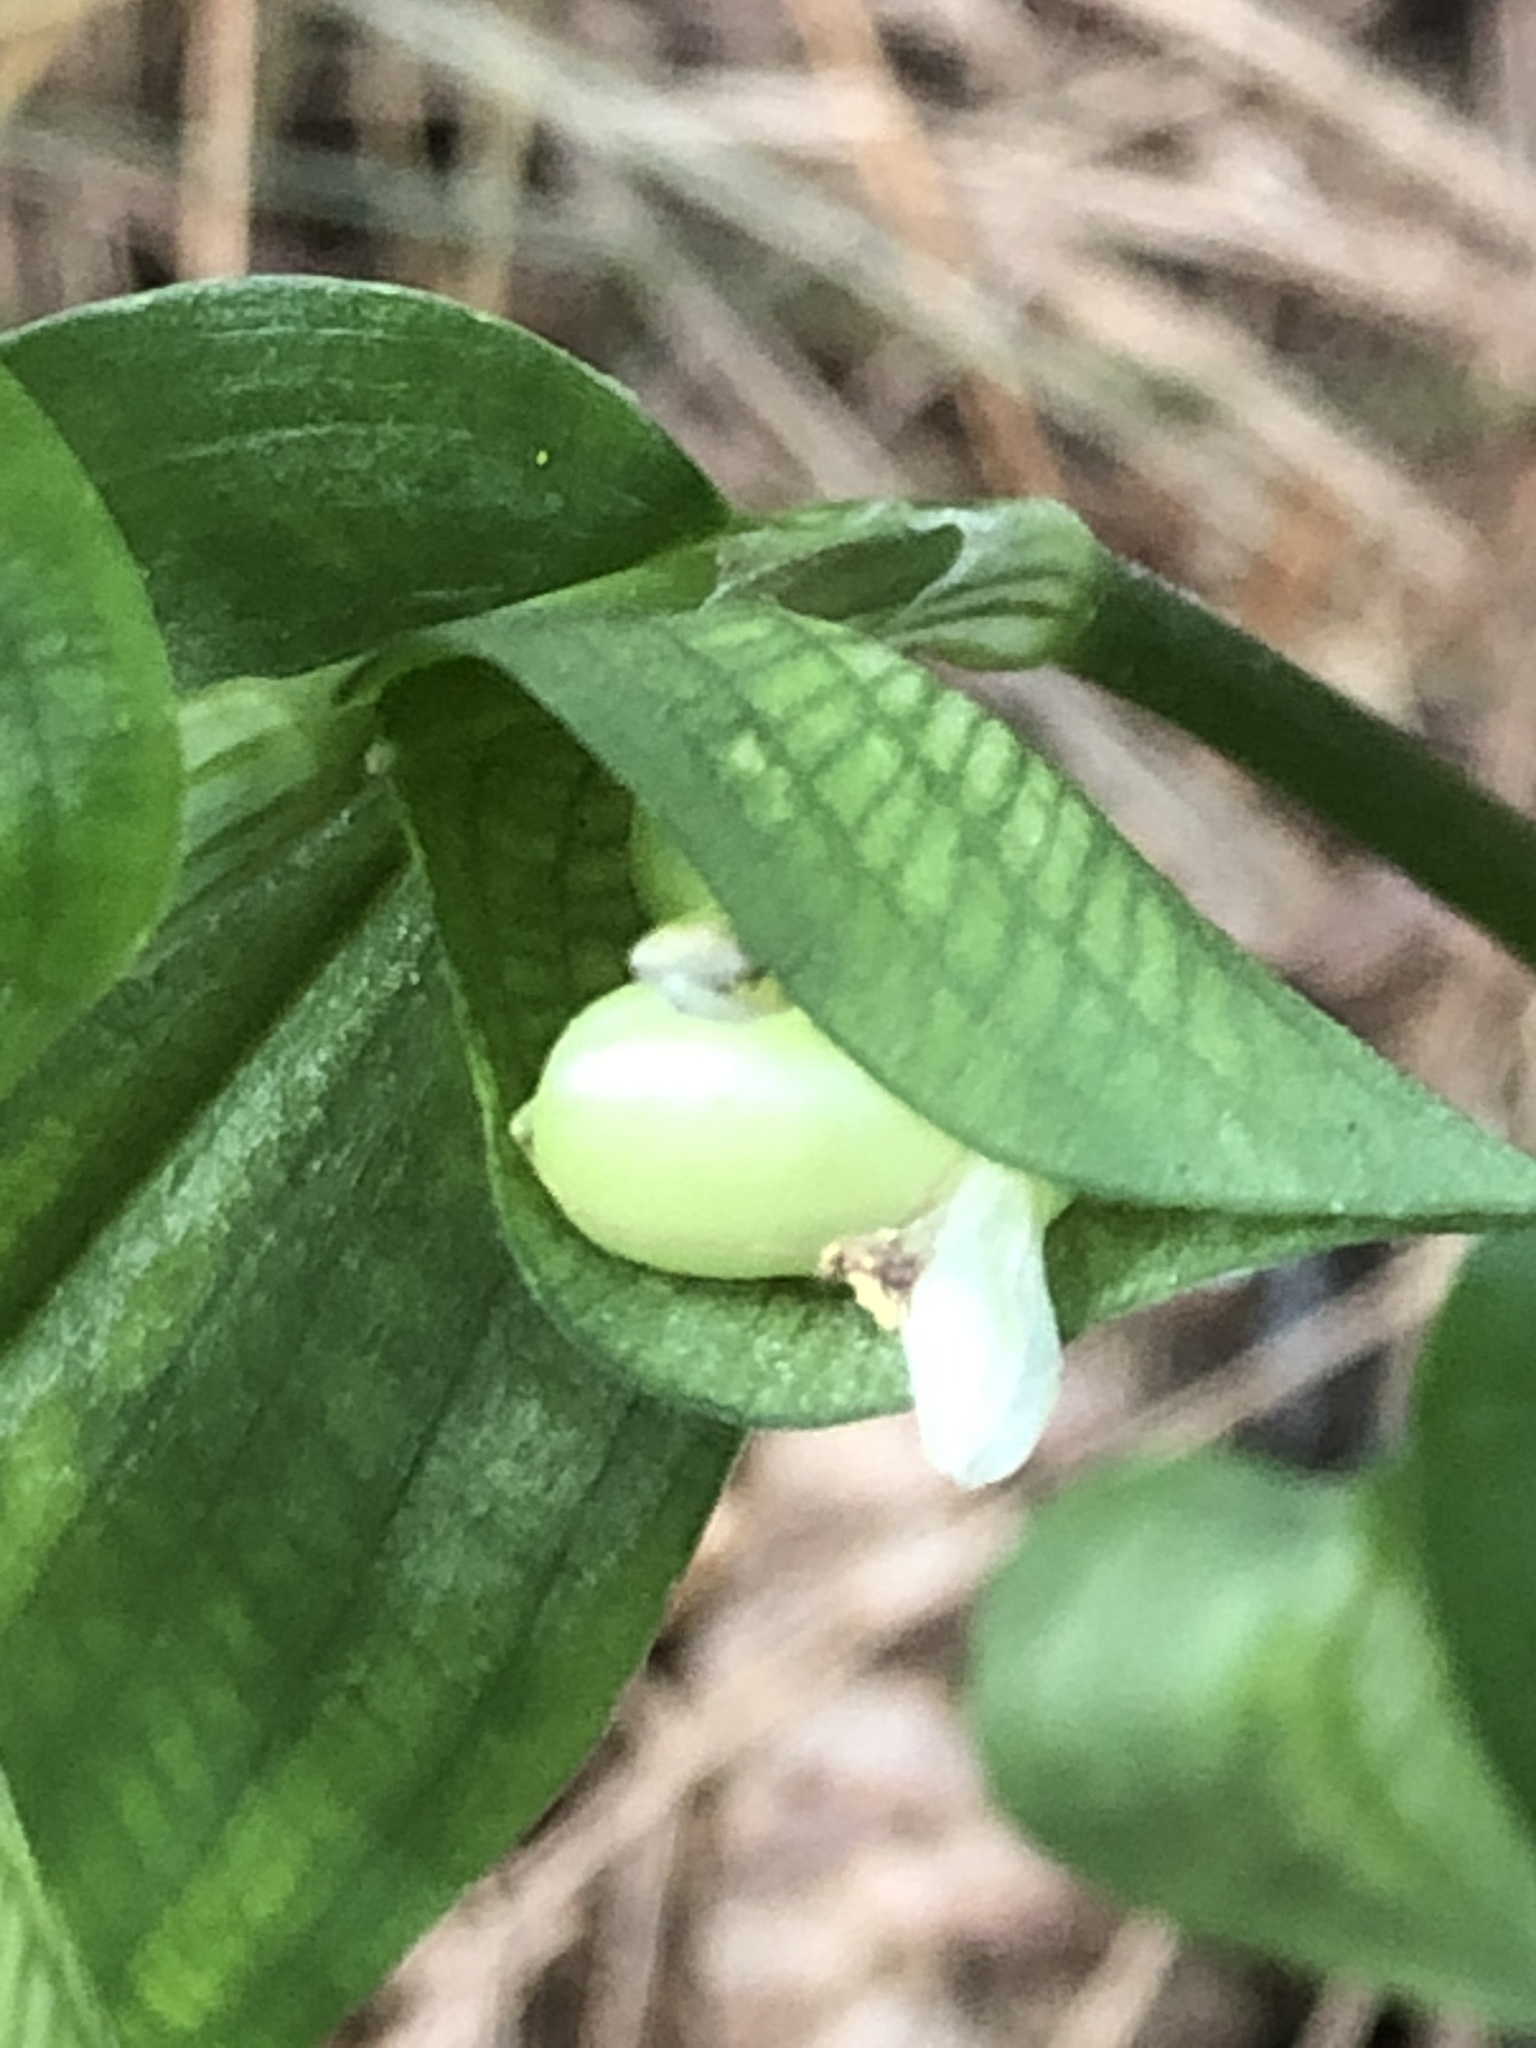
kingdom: Plantae
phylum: Tracheophyta
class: Liliopsida
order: Commelinales
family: Commelinaceae
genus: Commelina
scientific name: Commelina communis
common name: Asiatic dayflower
